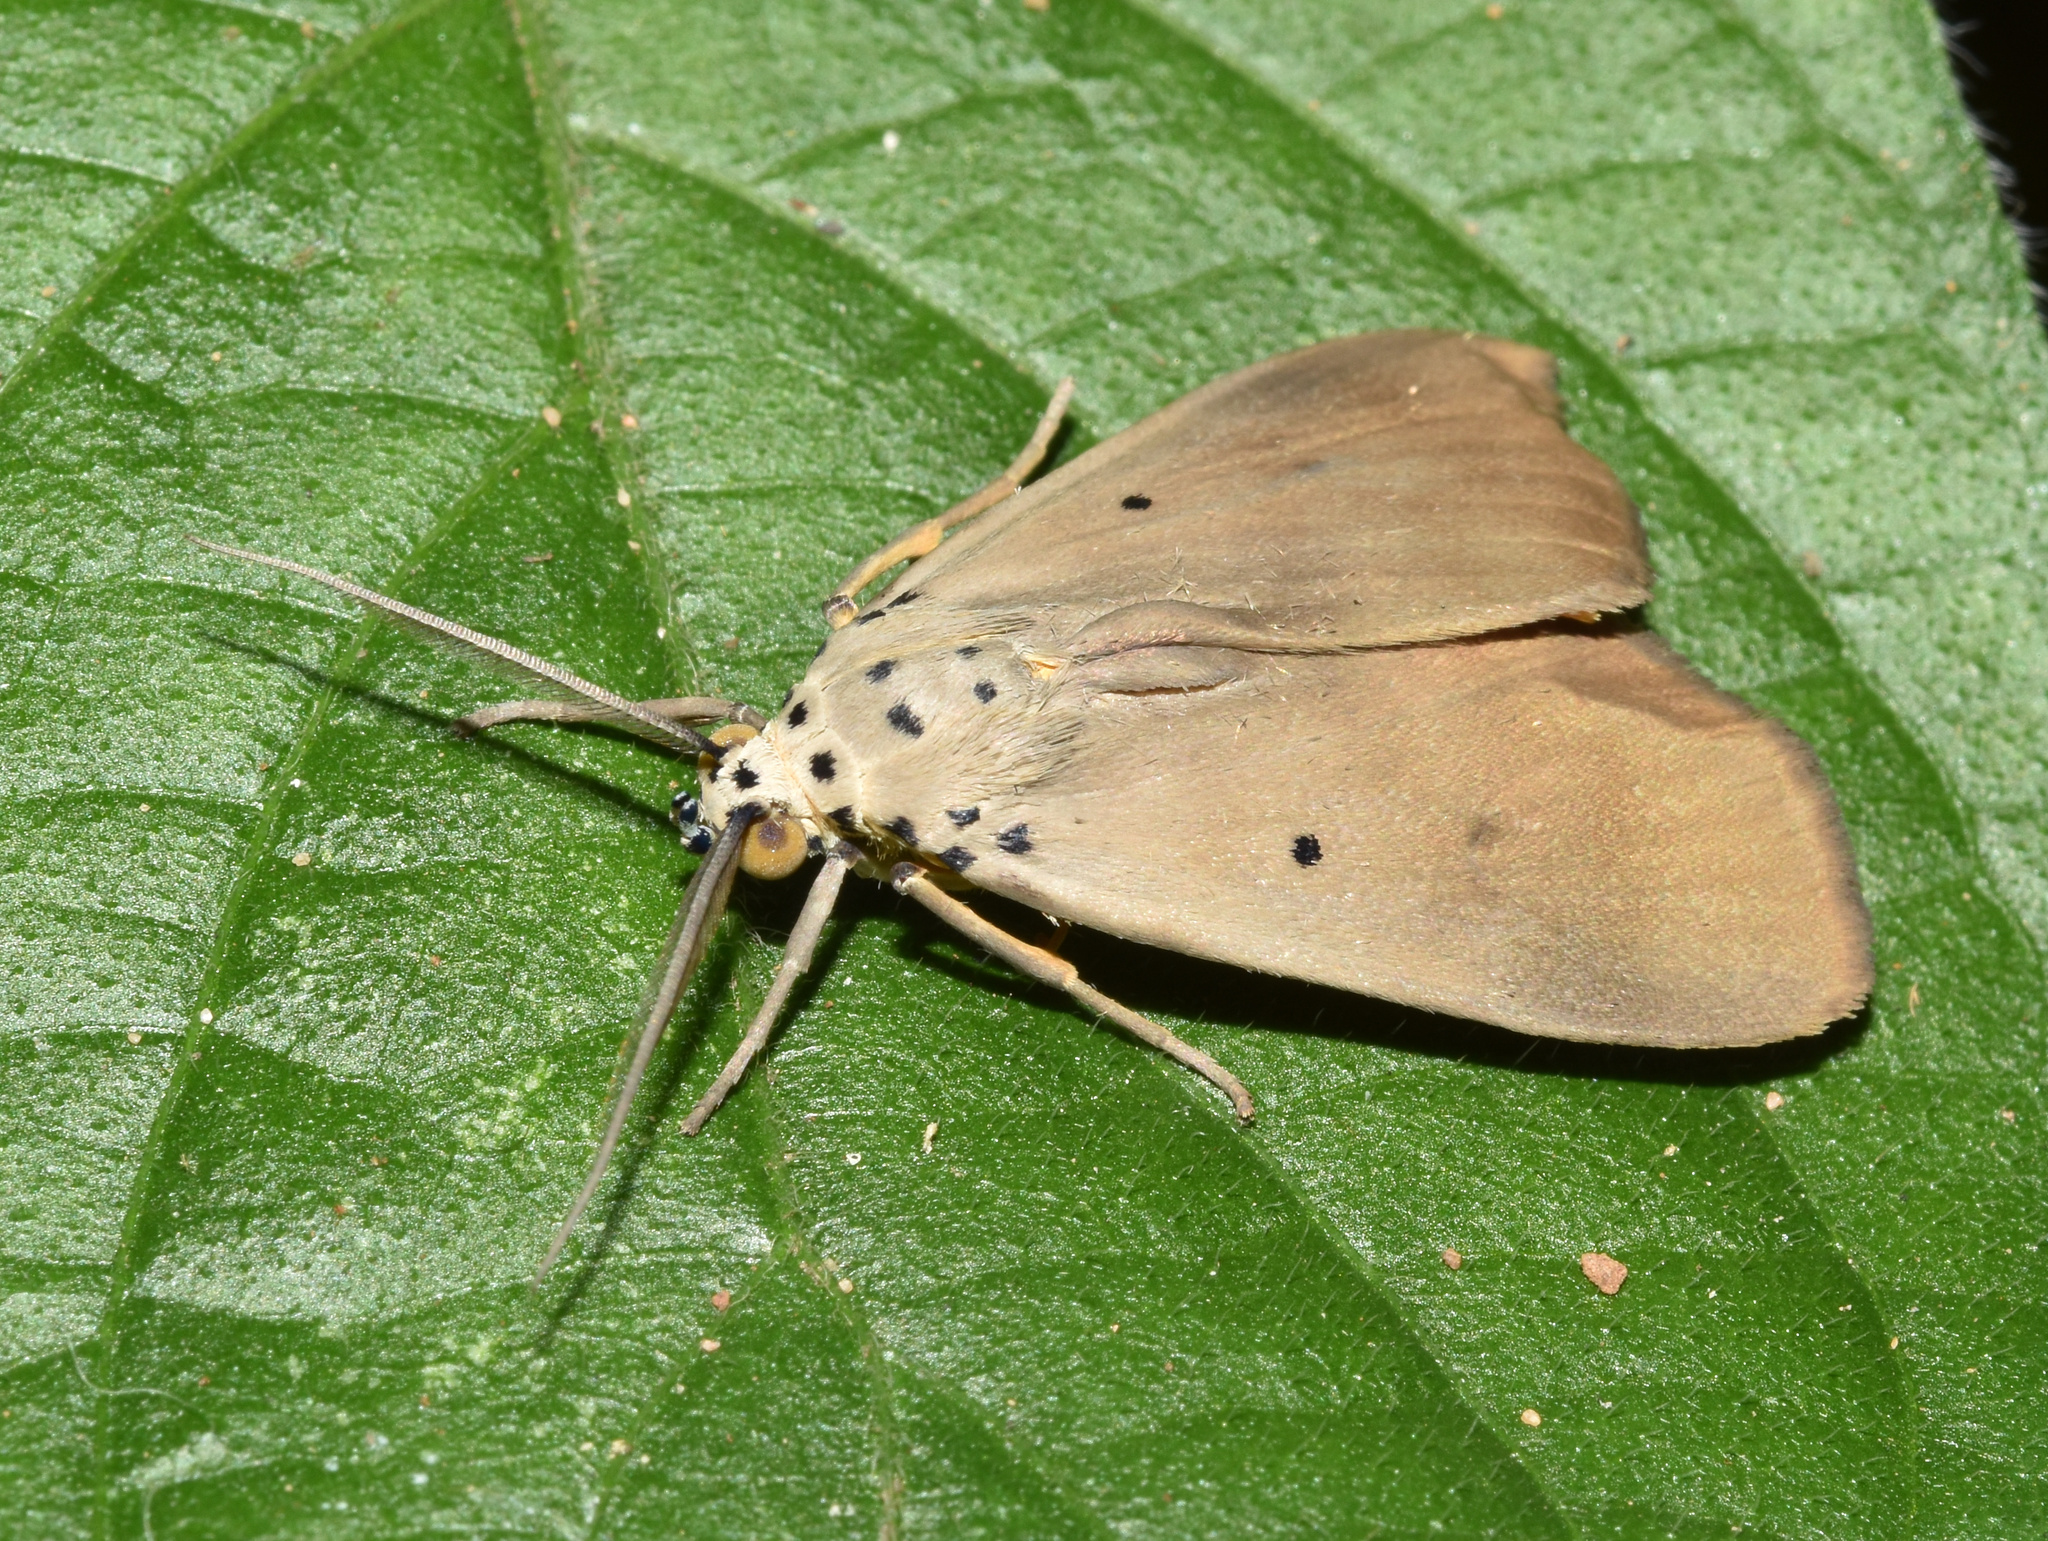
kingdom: Animalia
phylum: Arthropoda
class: Insecta
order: Lepidoptera
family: Erebidae
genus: Digama
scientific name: Digama aganais
